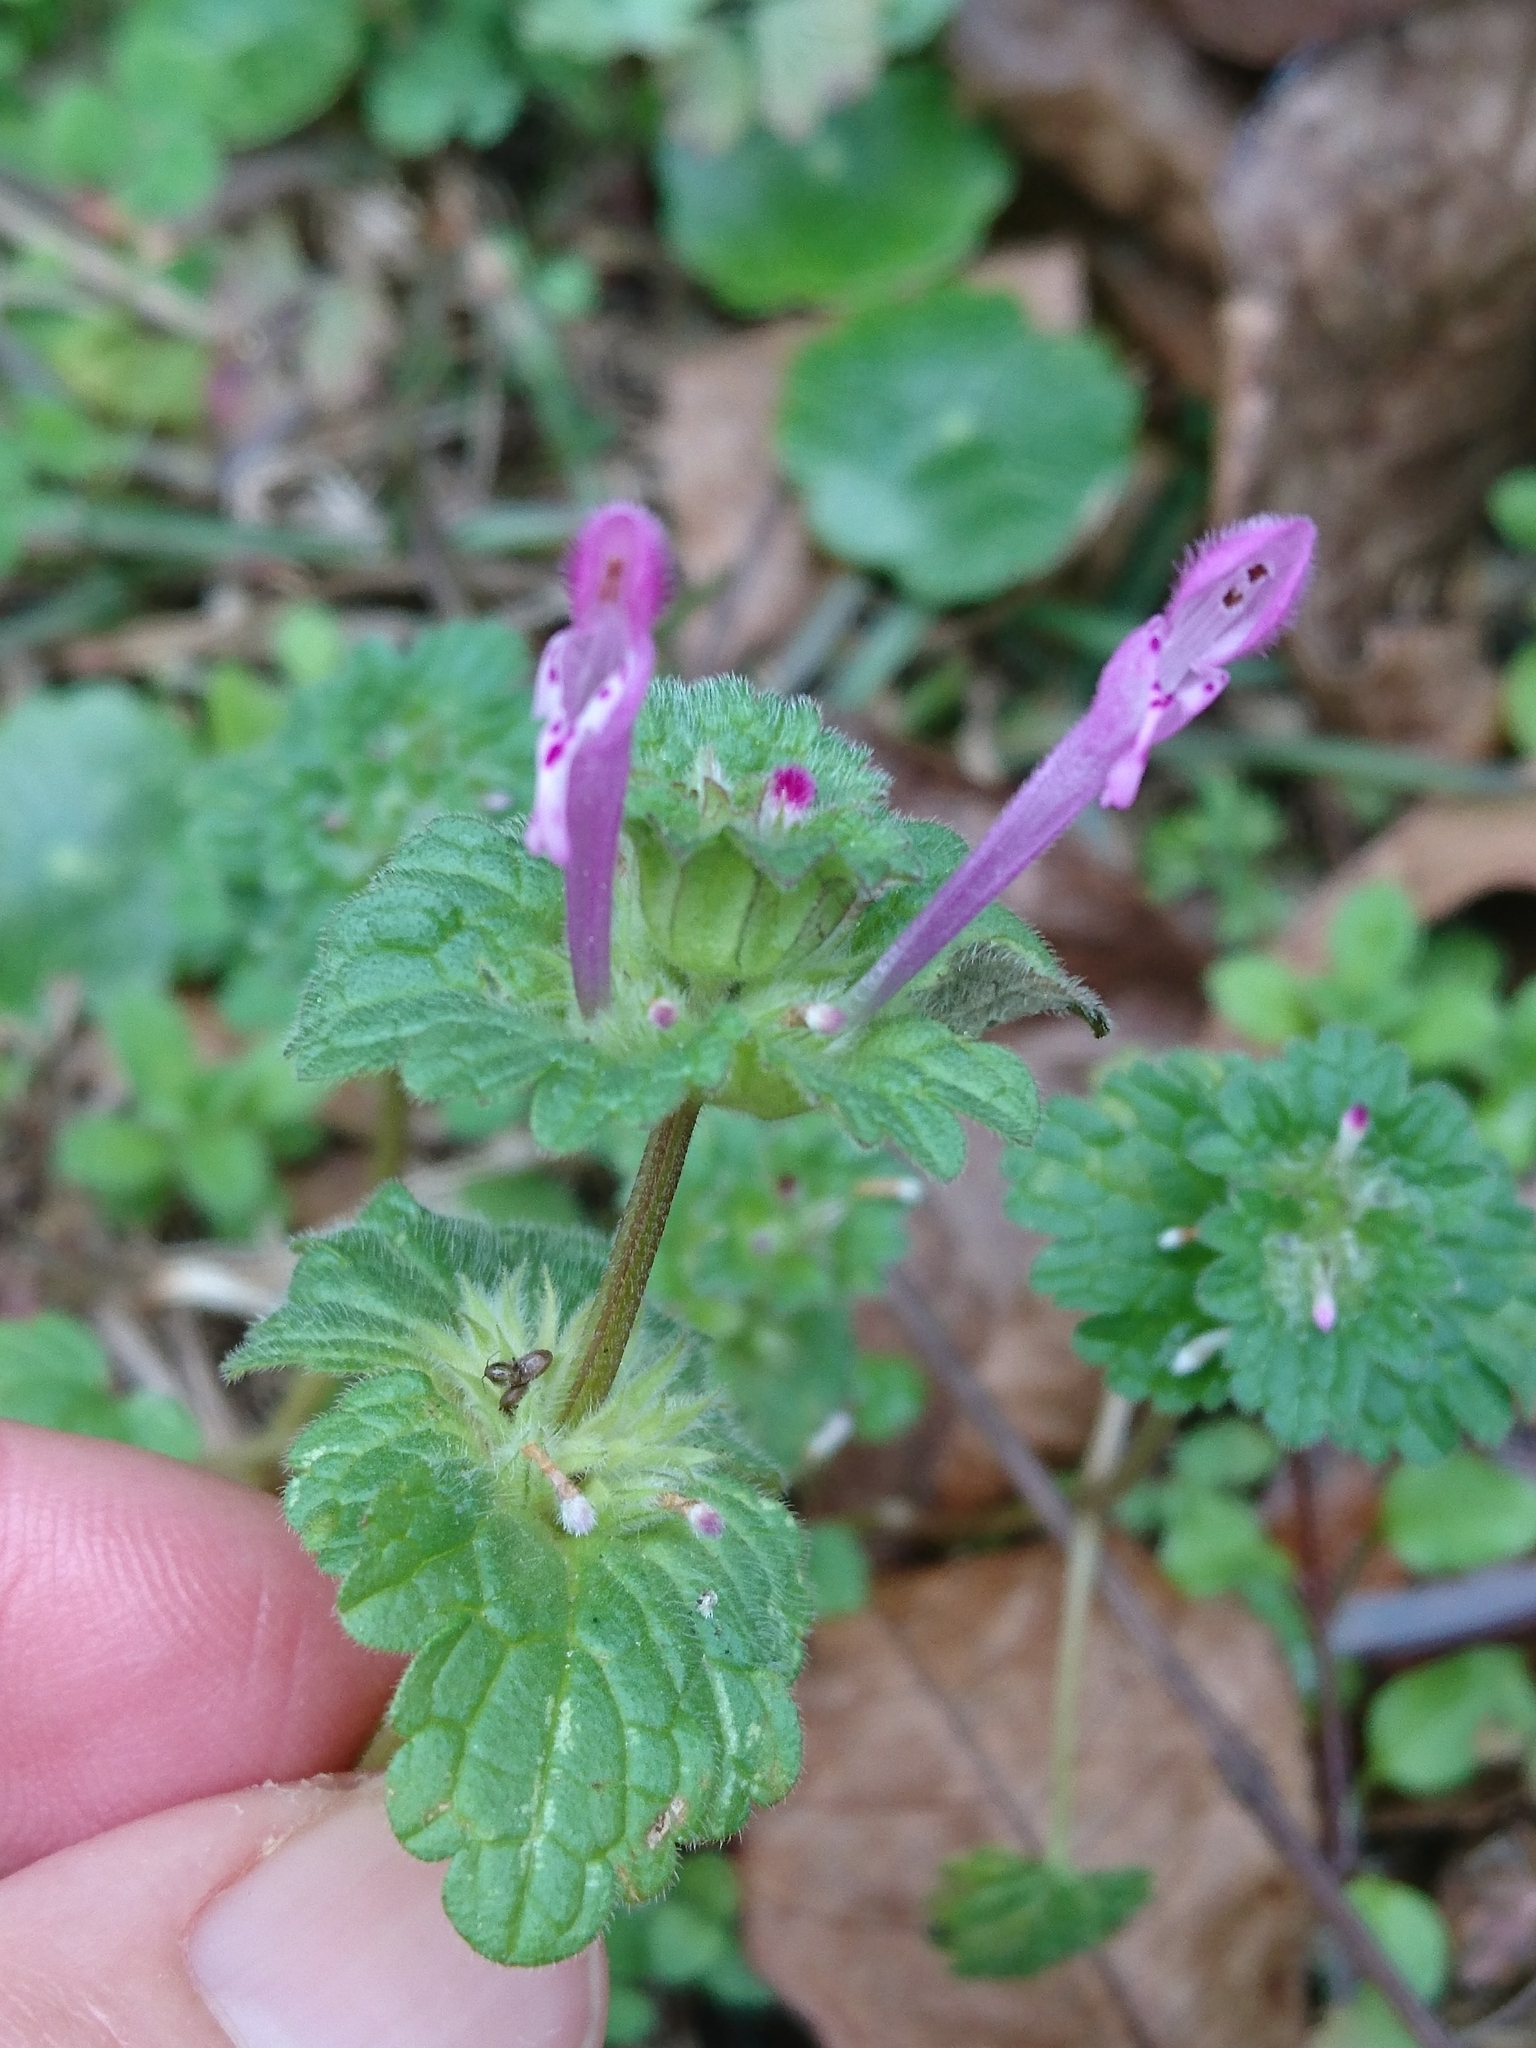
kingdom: Plantae
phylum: Tracheophyta
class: Magnoliopsida
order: Lamiales
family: Lamiaceae
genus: Lamium
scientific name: Lamium amplexicaule
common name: Henbit dead-nettle
